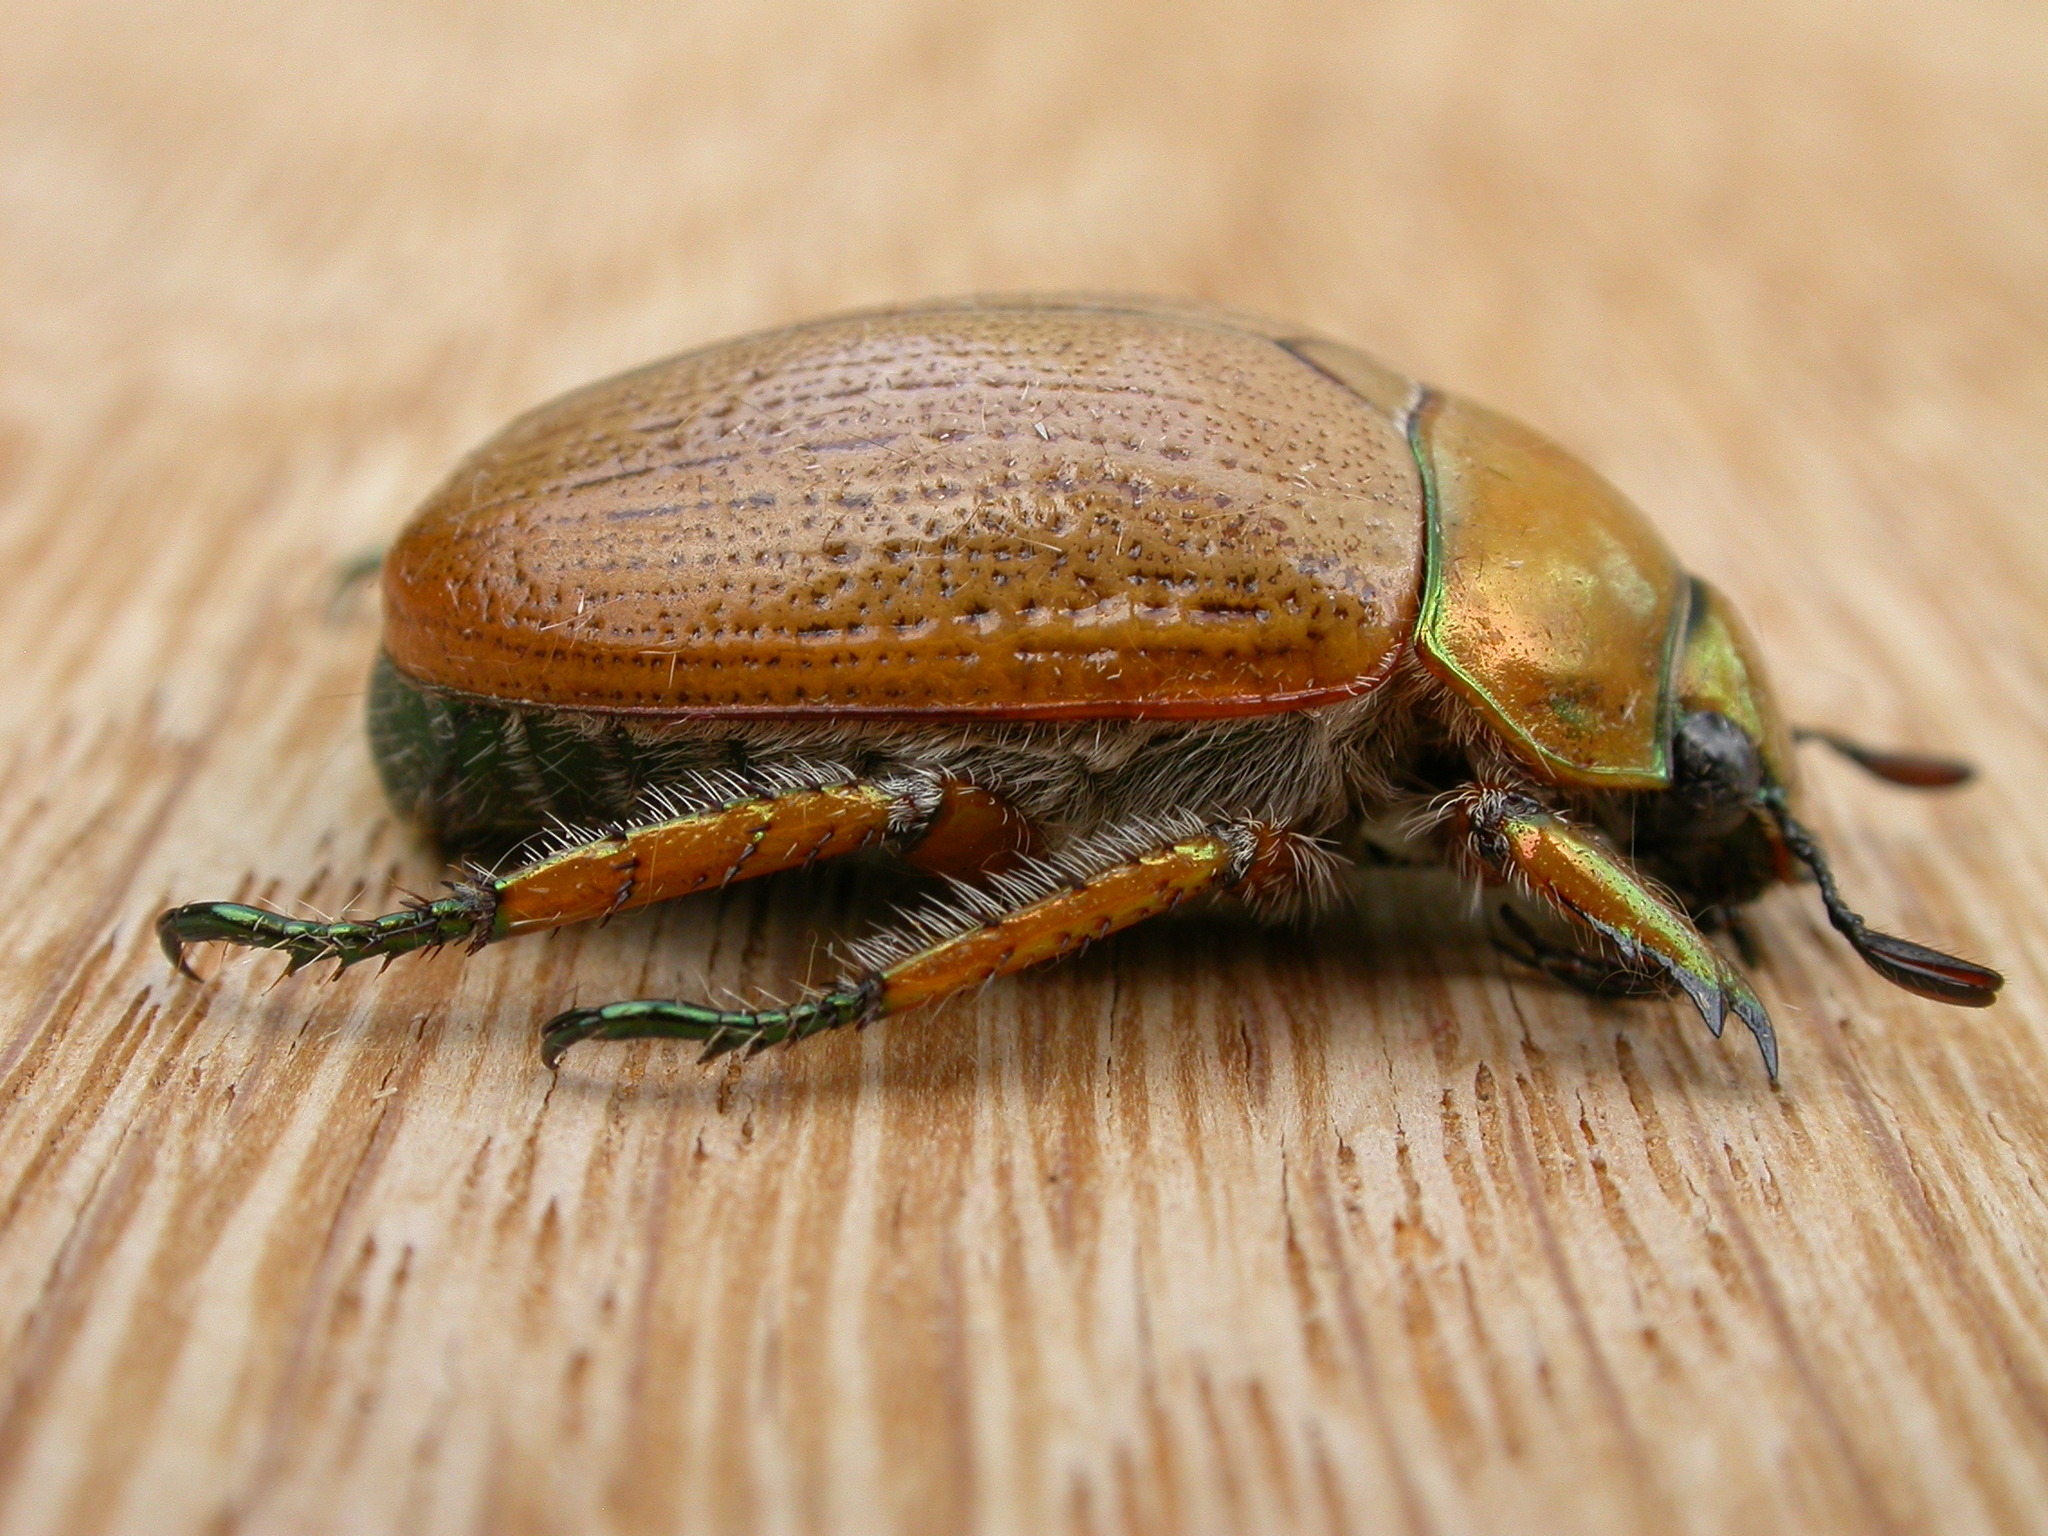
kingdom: Animalia
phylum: Arthropoda
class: Insecta
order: Coleoptera
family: Scarabaeidae
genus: Anoplognathus
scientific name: Anoplognathus brunnipennis
